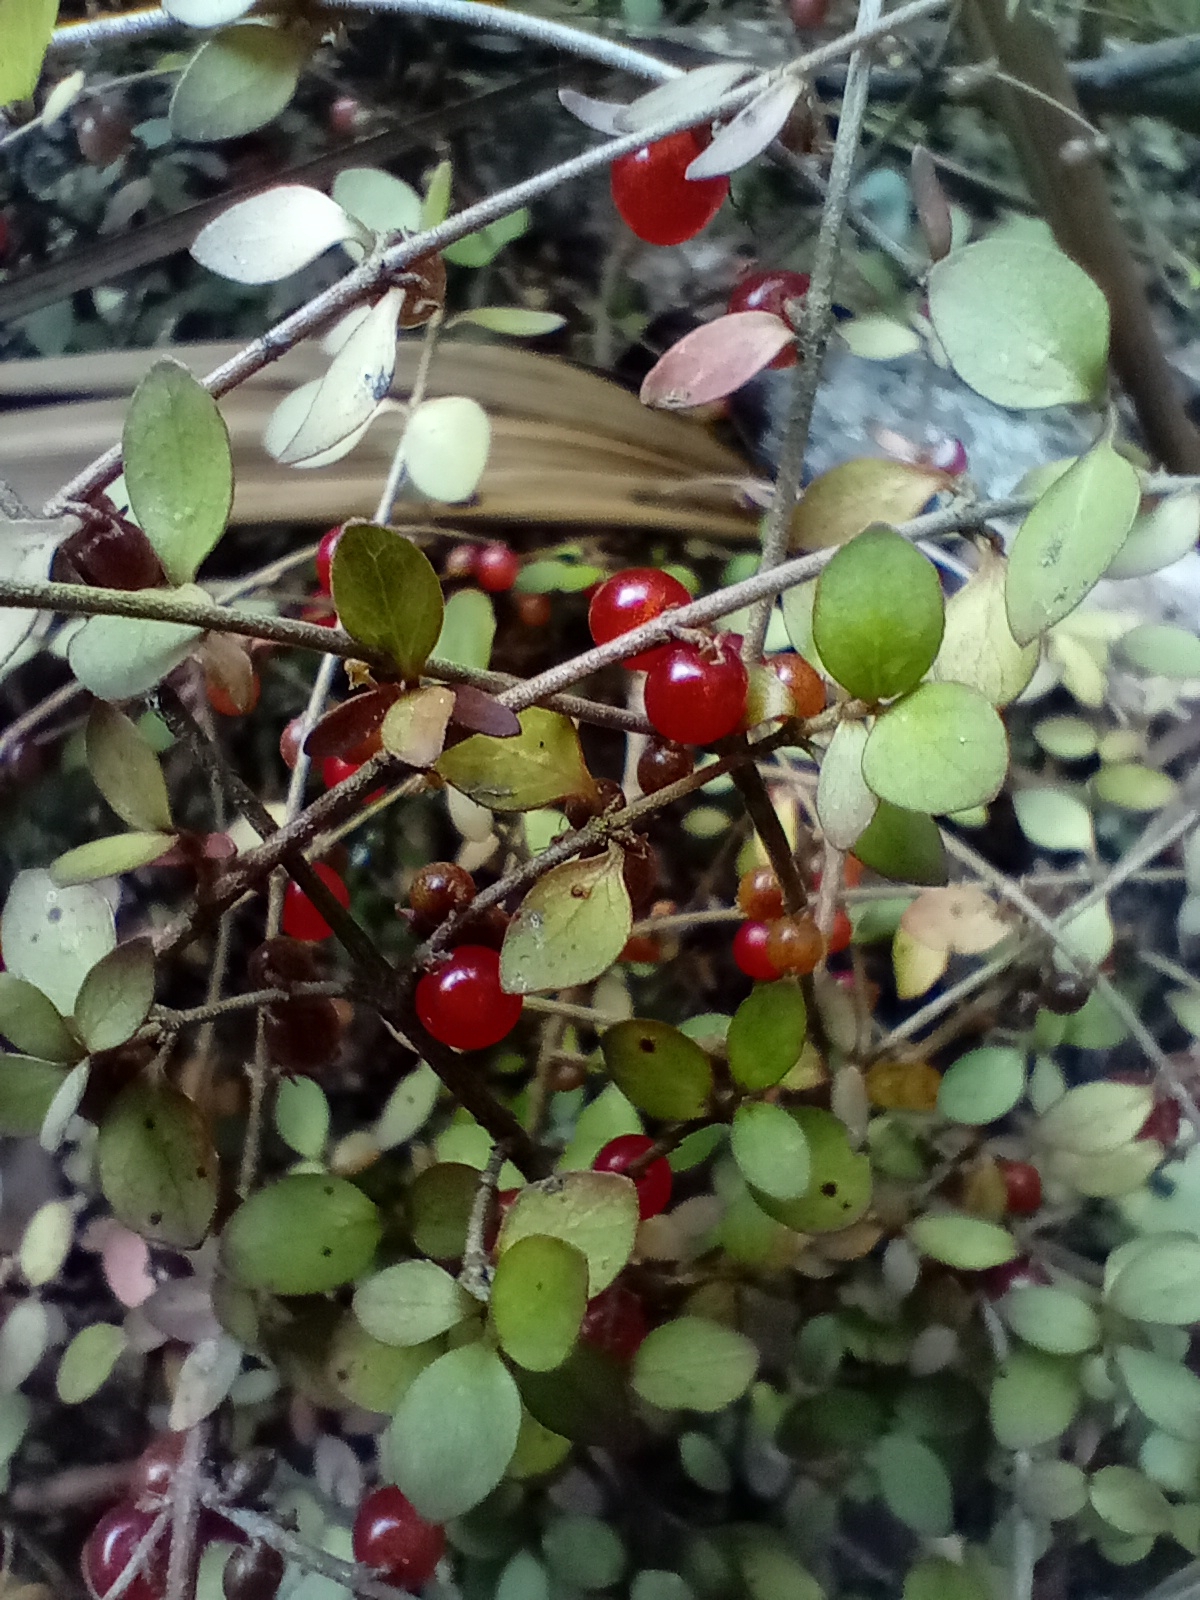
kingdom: Plantae
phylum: Tracheophyta
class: Magnoliopsida
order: Gentianales
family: Rubiaceae
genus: Coprosma
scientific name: Coprosma rhamnoides
